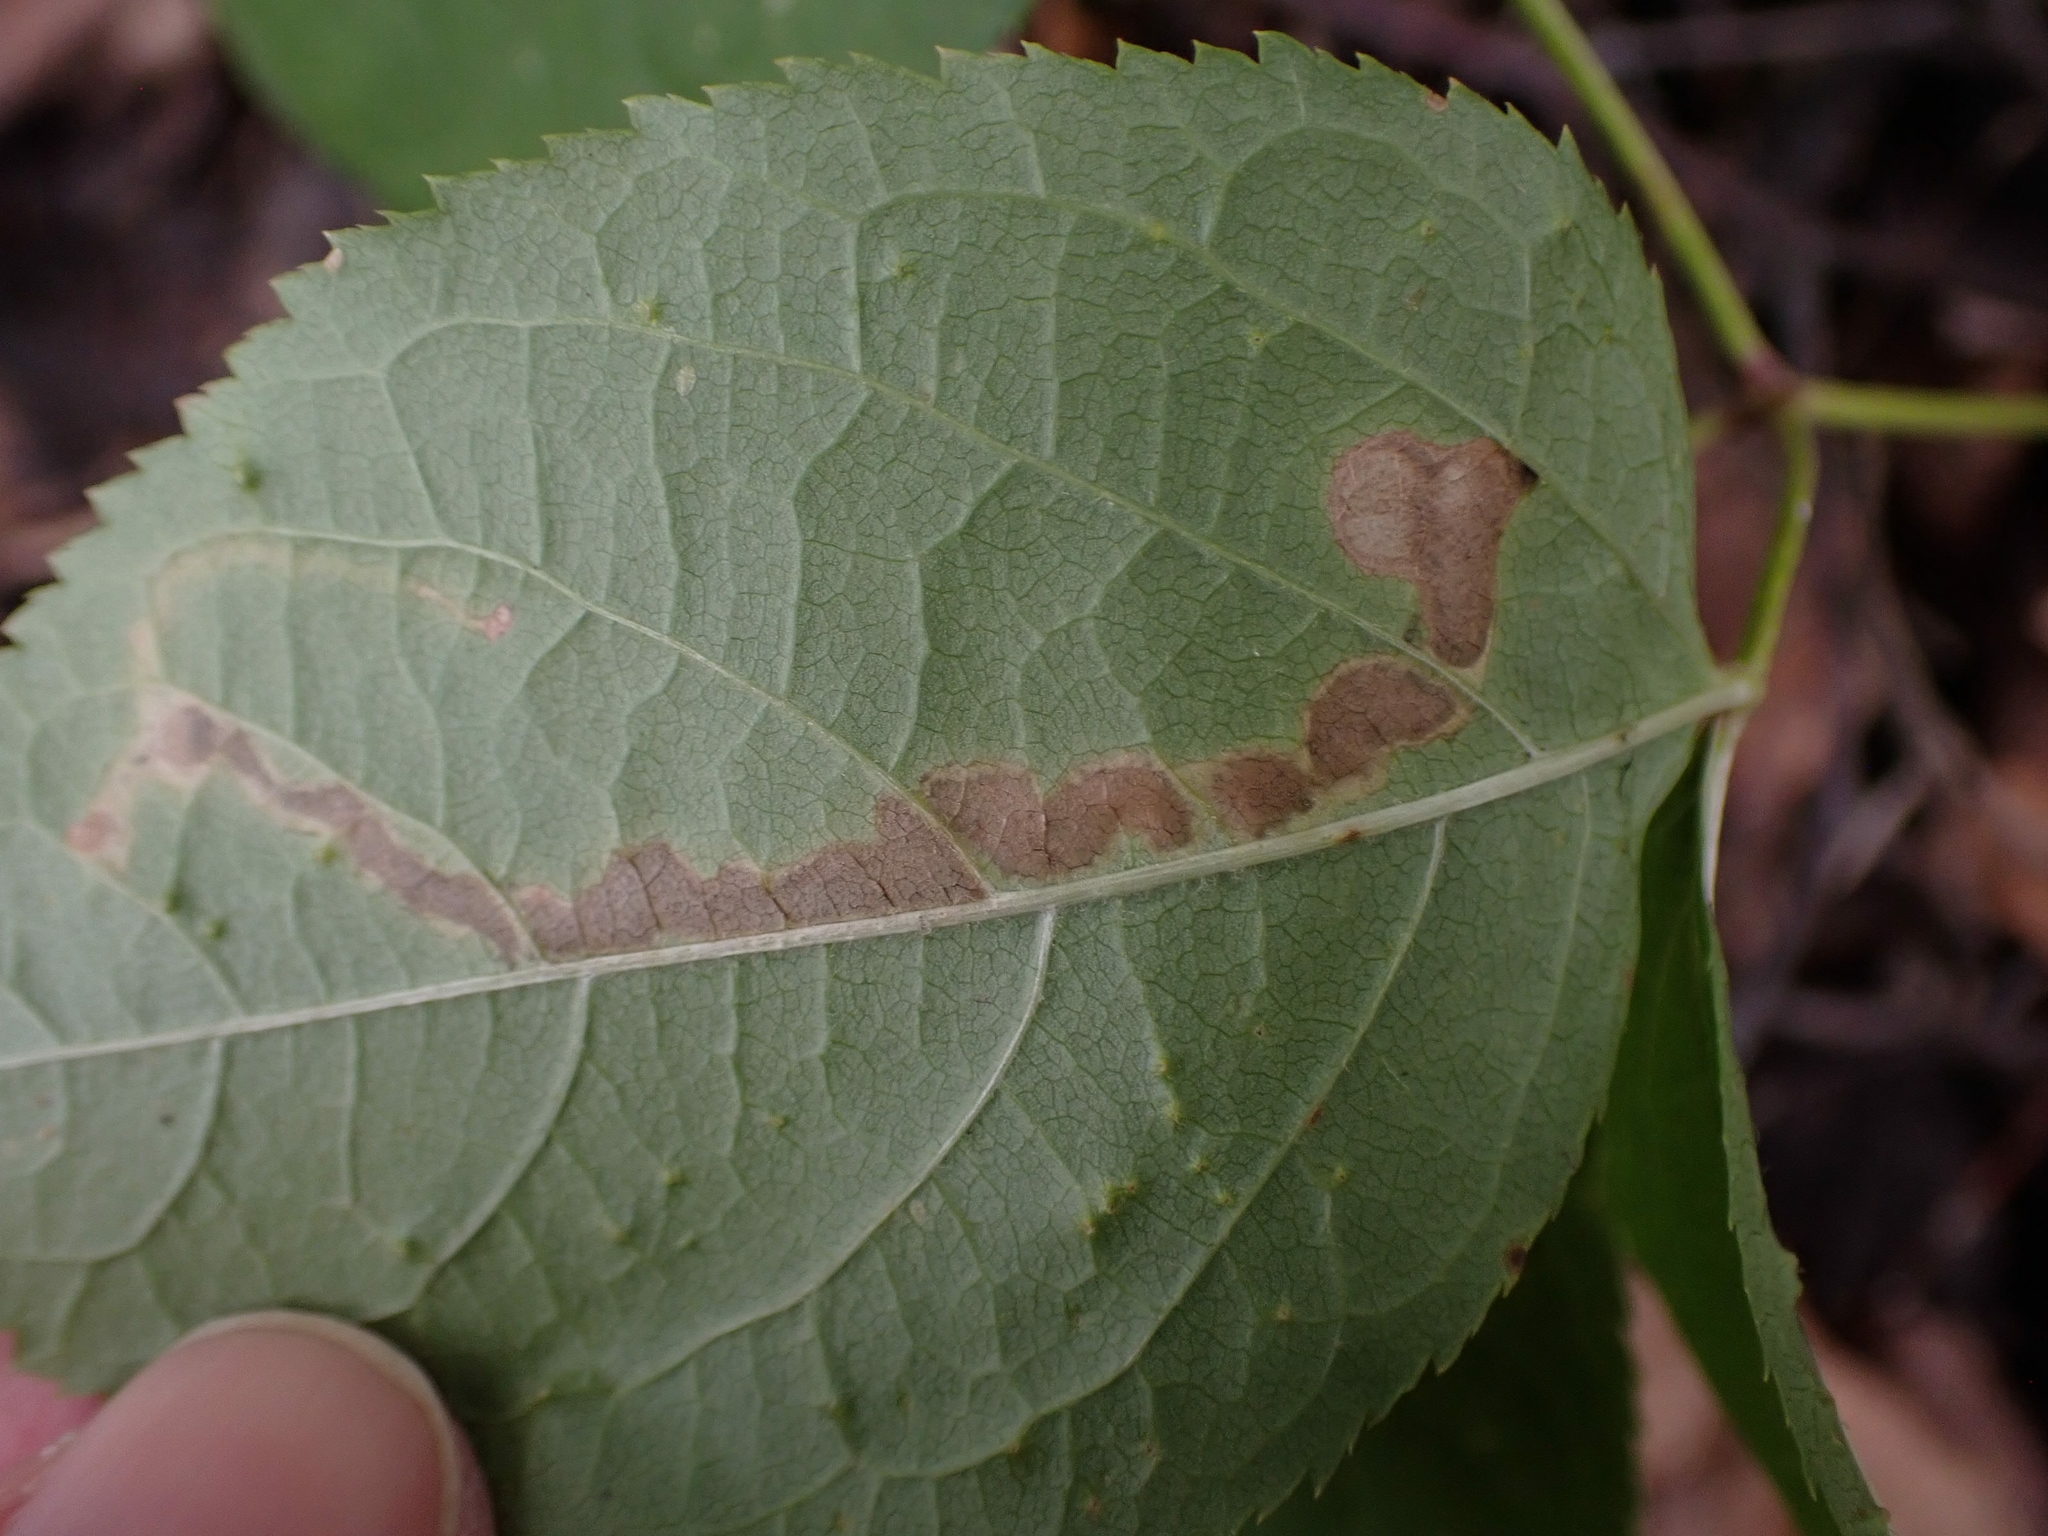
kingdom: Animalia
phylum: Arthropoda
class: Insecta
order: Diptera
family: Agromyzidae
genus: Phytomyza
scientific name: Phytomyza aralivora
